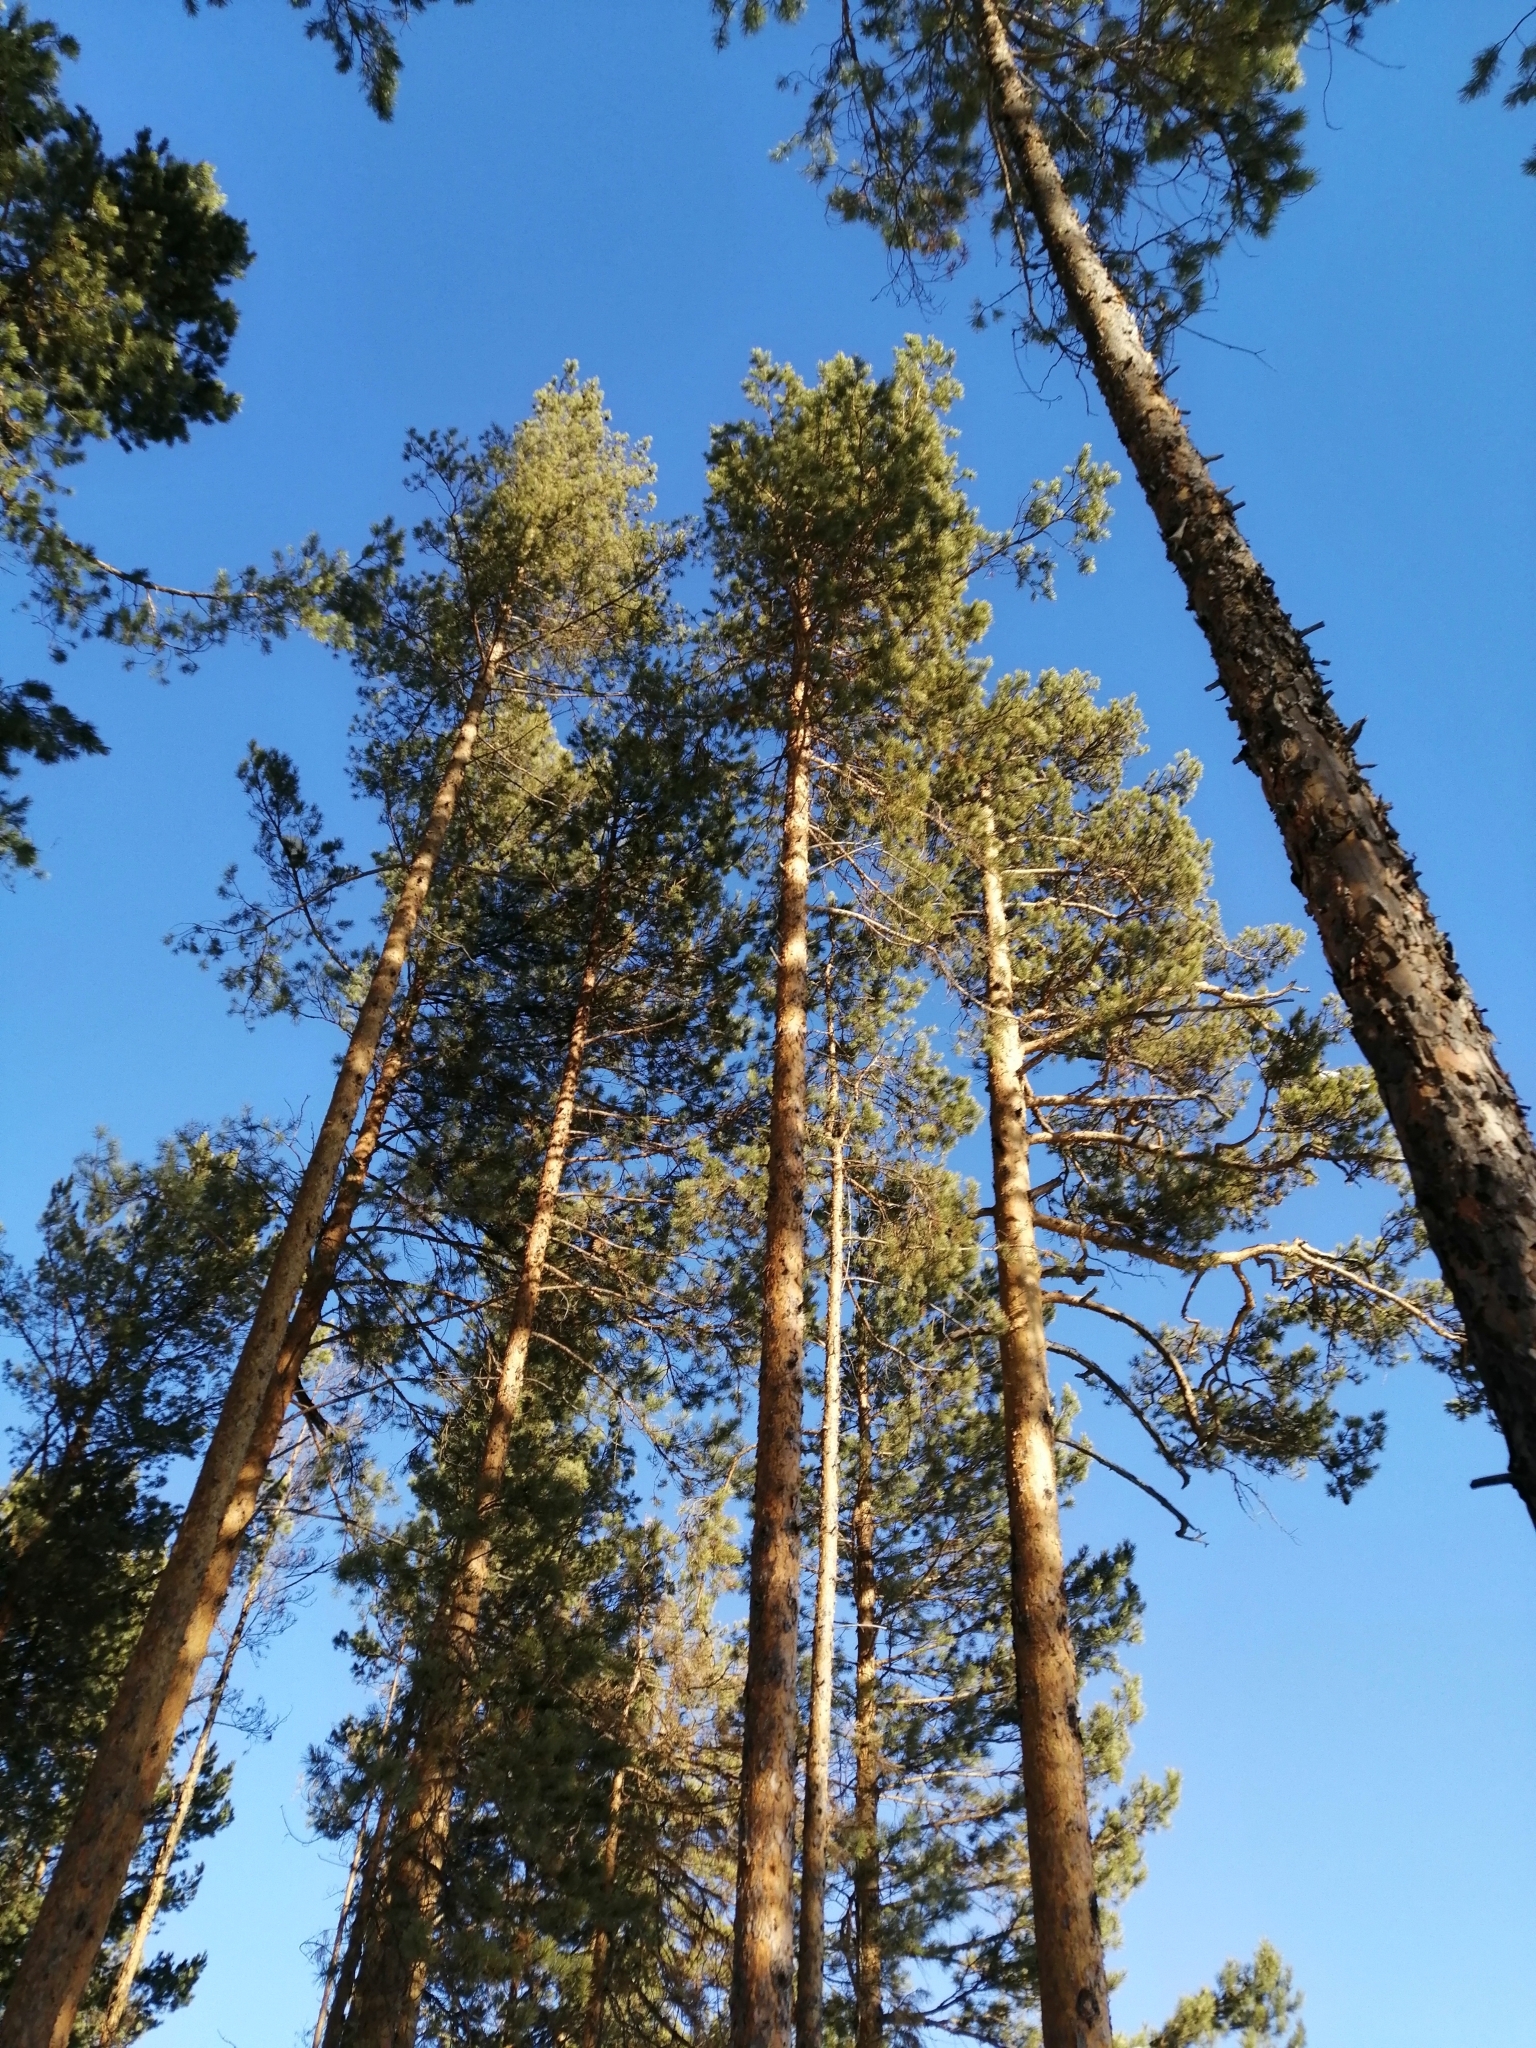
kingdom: Plantae
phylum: Tracheophyta
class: Pinopsida
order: Pinales
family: Pinaceae
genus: Pinus
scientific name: Pinus sylvestris
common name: Scots pine
